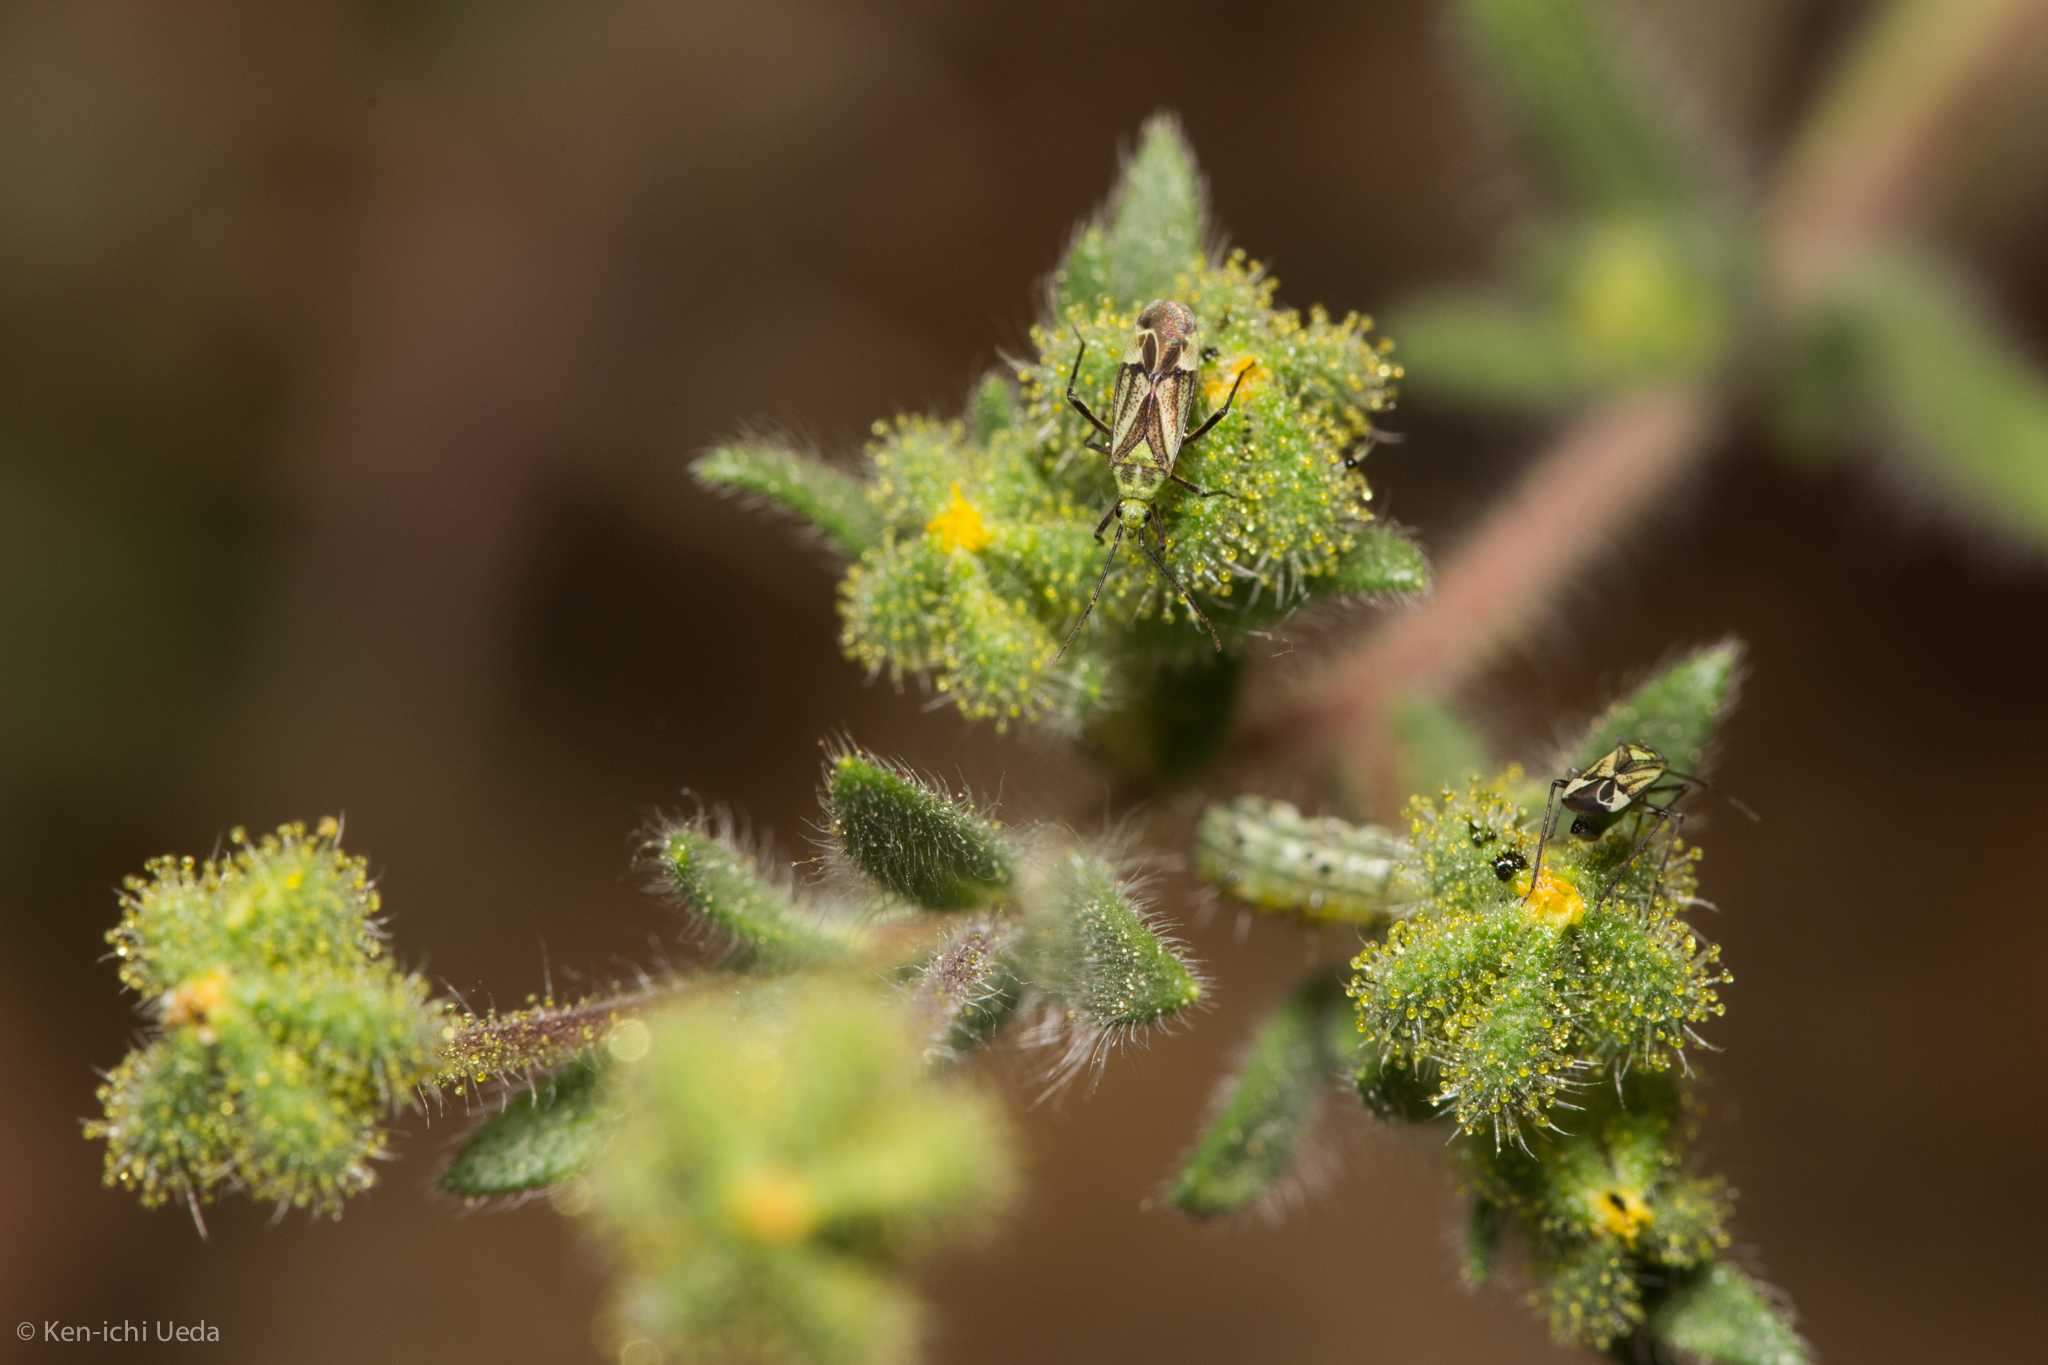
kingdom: Animalia
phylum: Arthropoda
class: Insecta
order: Hemiptera
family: Miridae
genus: Macrotylus
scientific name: Macrotylus intermedius
